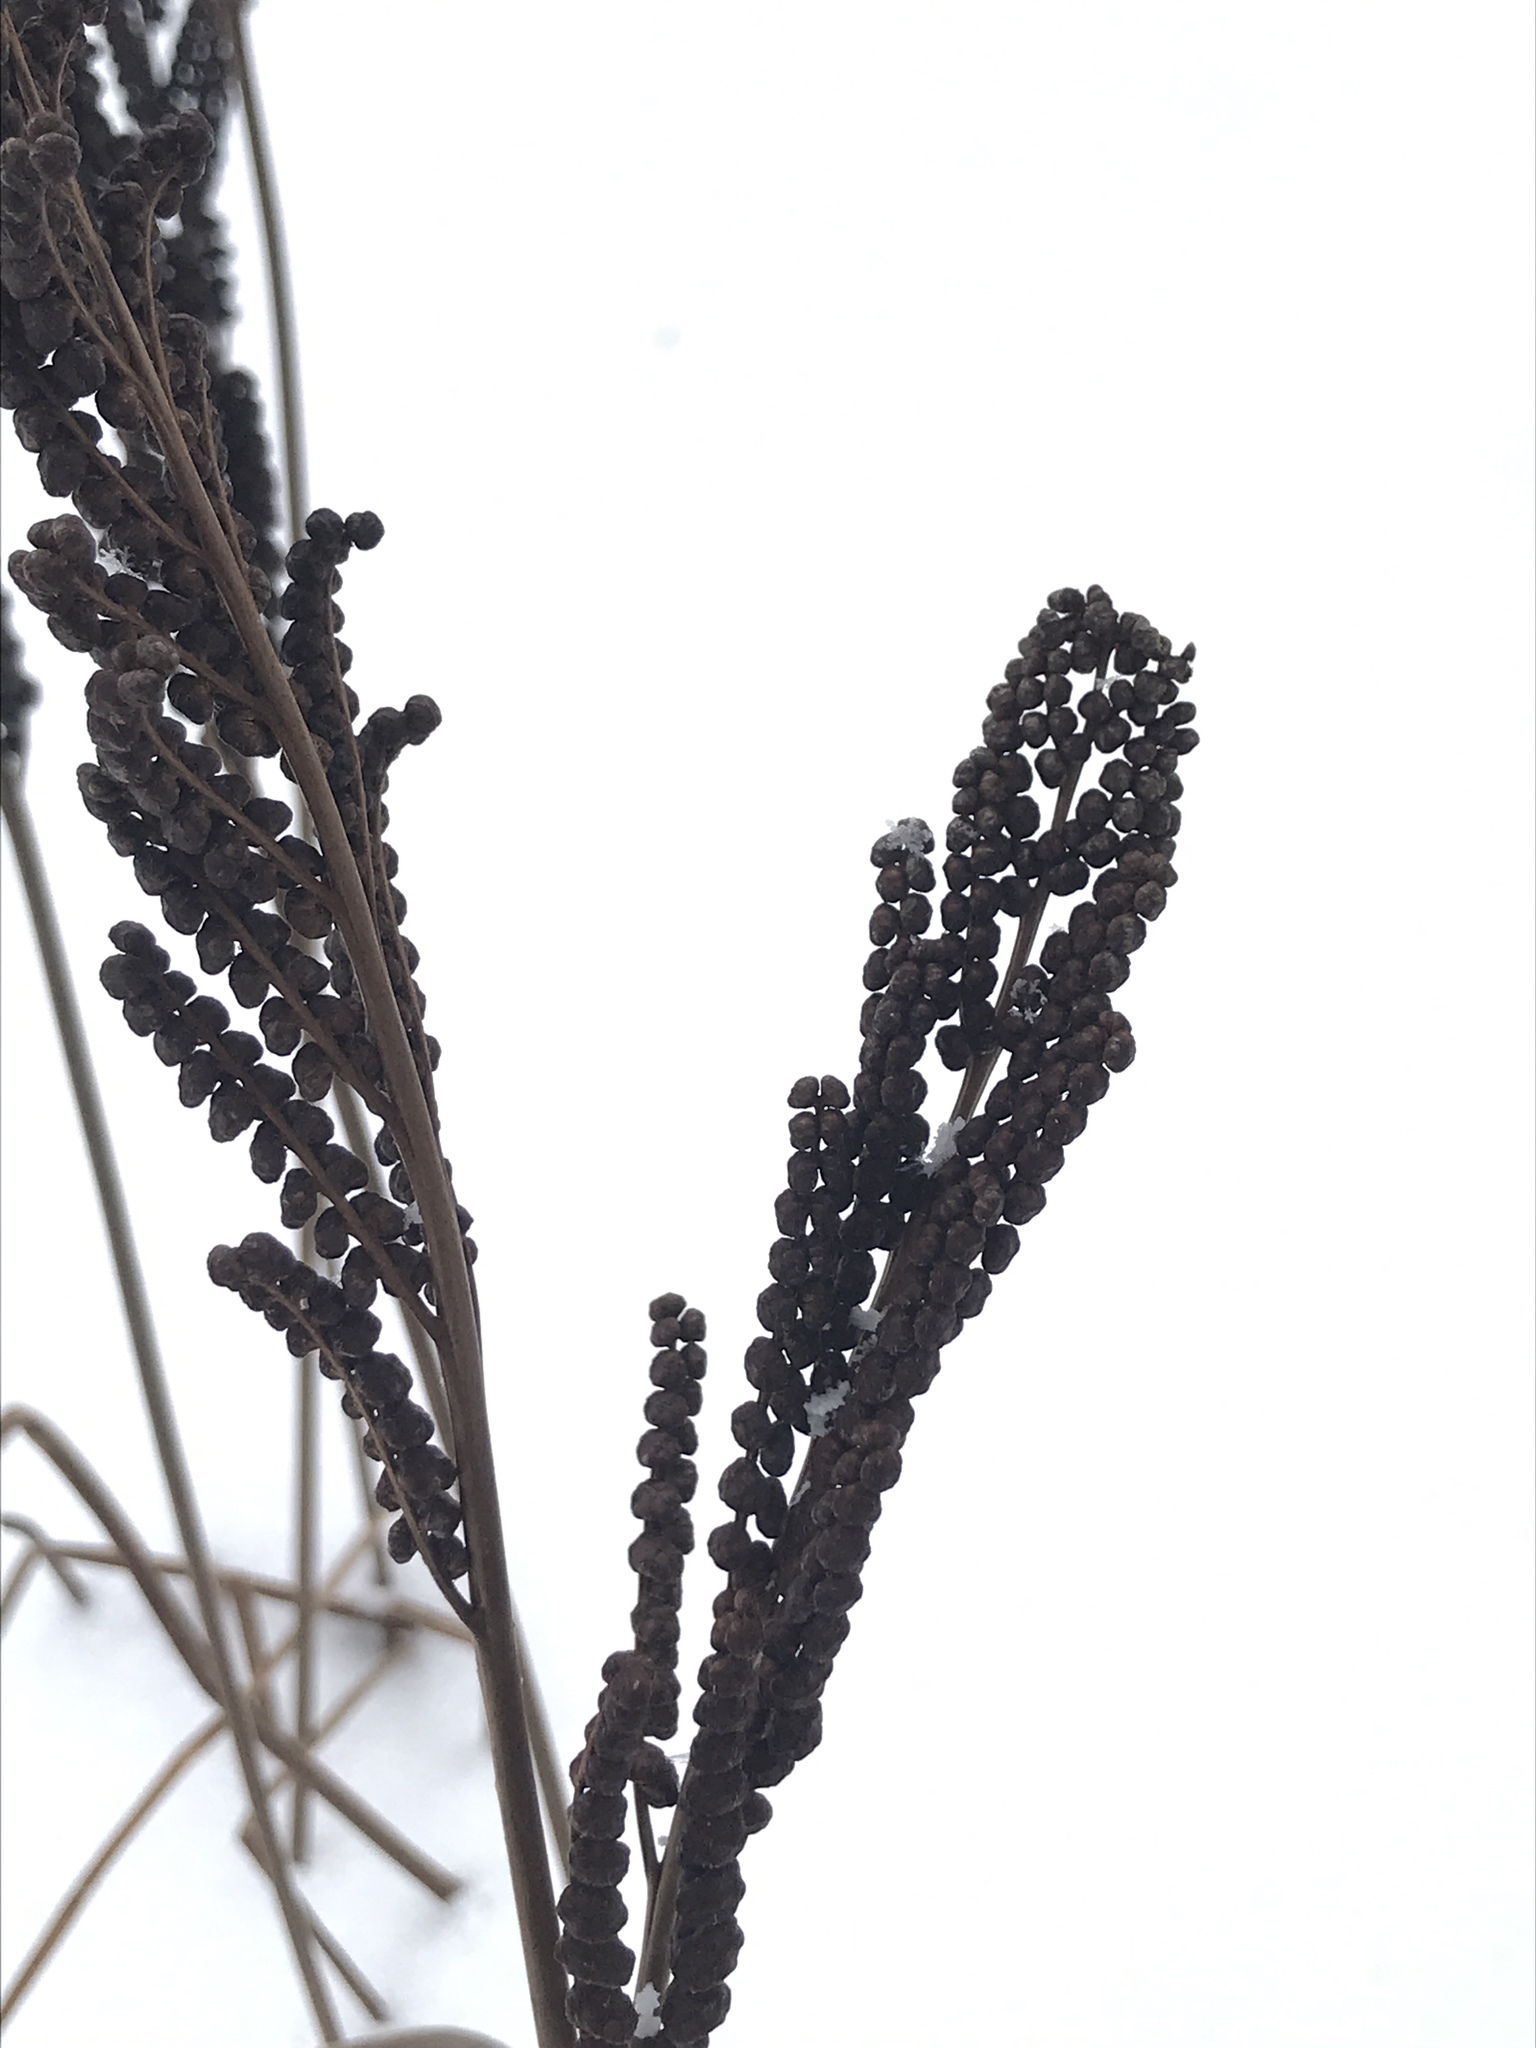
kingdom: Plantae
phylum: Tracheophyta
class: Polypodiopsida
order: Polypodiales
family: Onocleaceae
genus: Onoclea
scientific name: Onoclea sensibilis
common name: Sensitive fern
